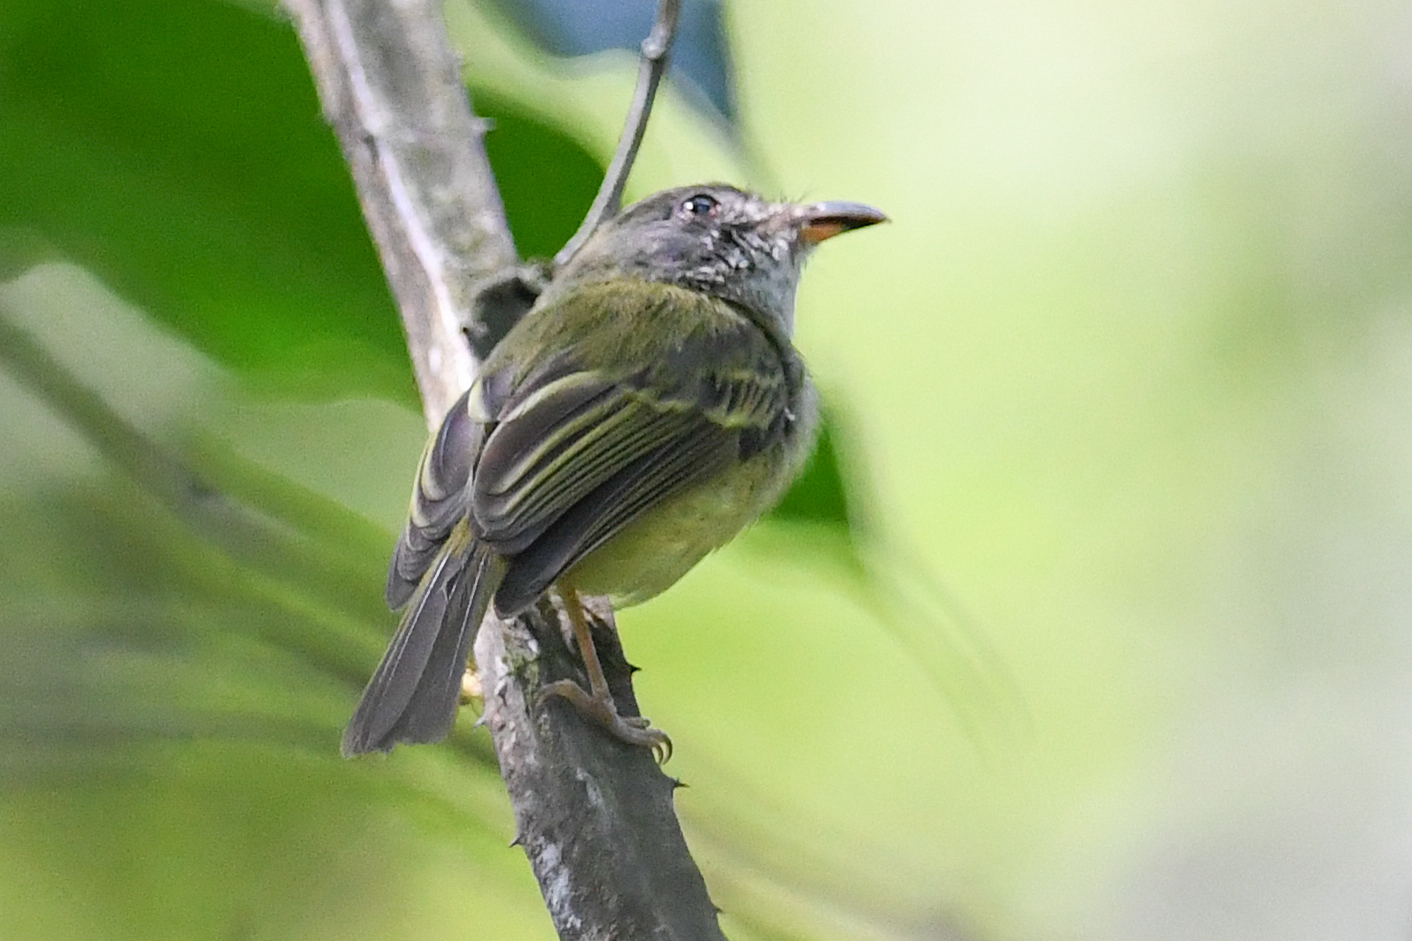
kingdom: Animalia
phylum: Chordata
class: Aves
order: Passeriformes
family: Tyrannidae
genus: Oncostoma
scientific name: Oncostoma cinereigulare
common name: Northern bentbill
